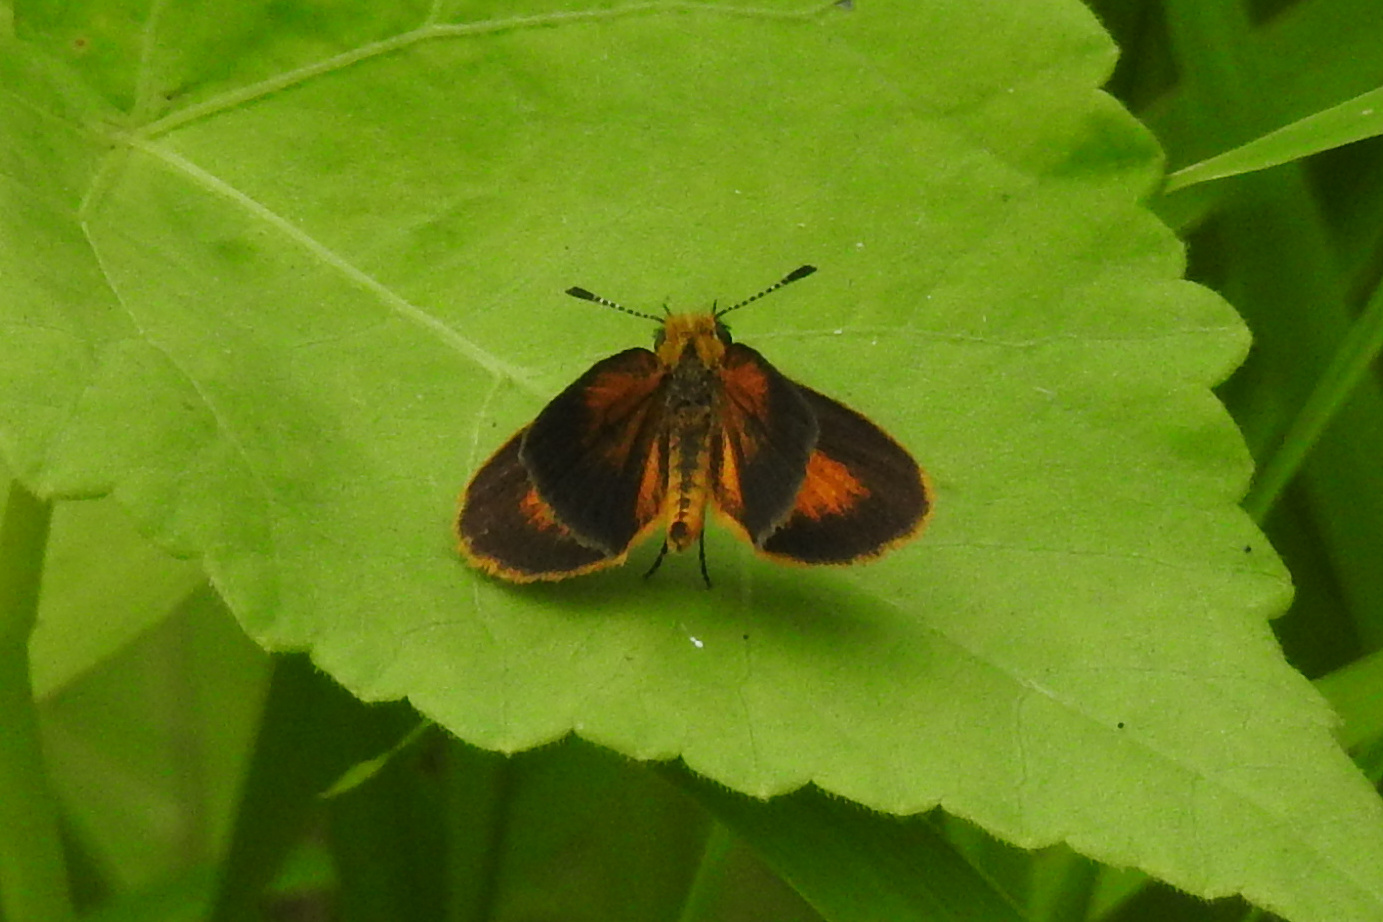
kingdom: Animalia
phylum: Arthropoda
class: Insecta
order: Lepidoptera
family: Hesperiidae
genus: Ancyloxypha
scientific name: Ancyloxypha numitor
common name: Least skipper
